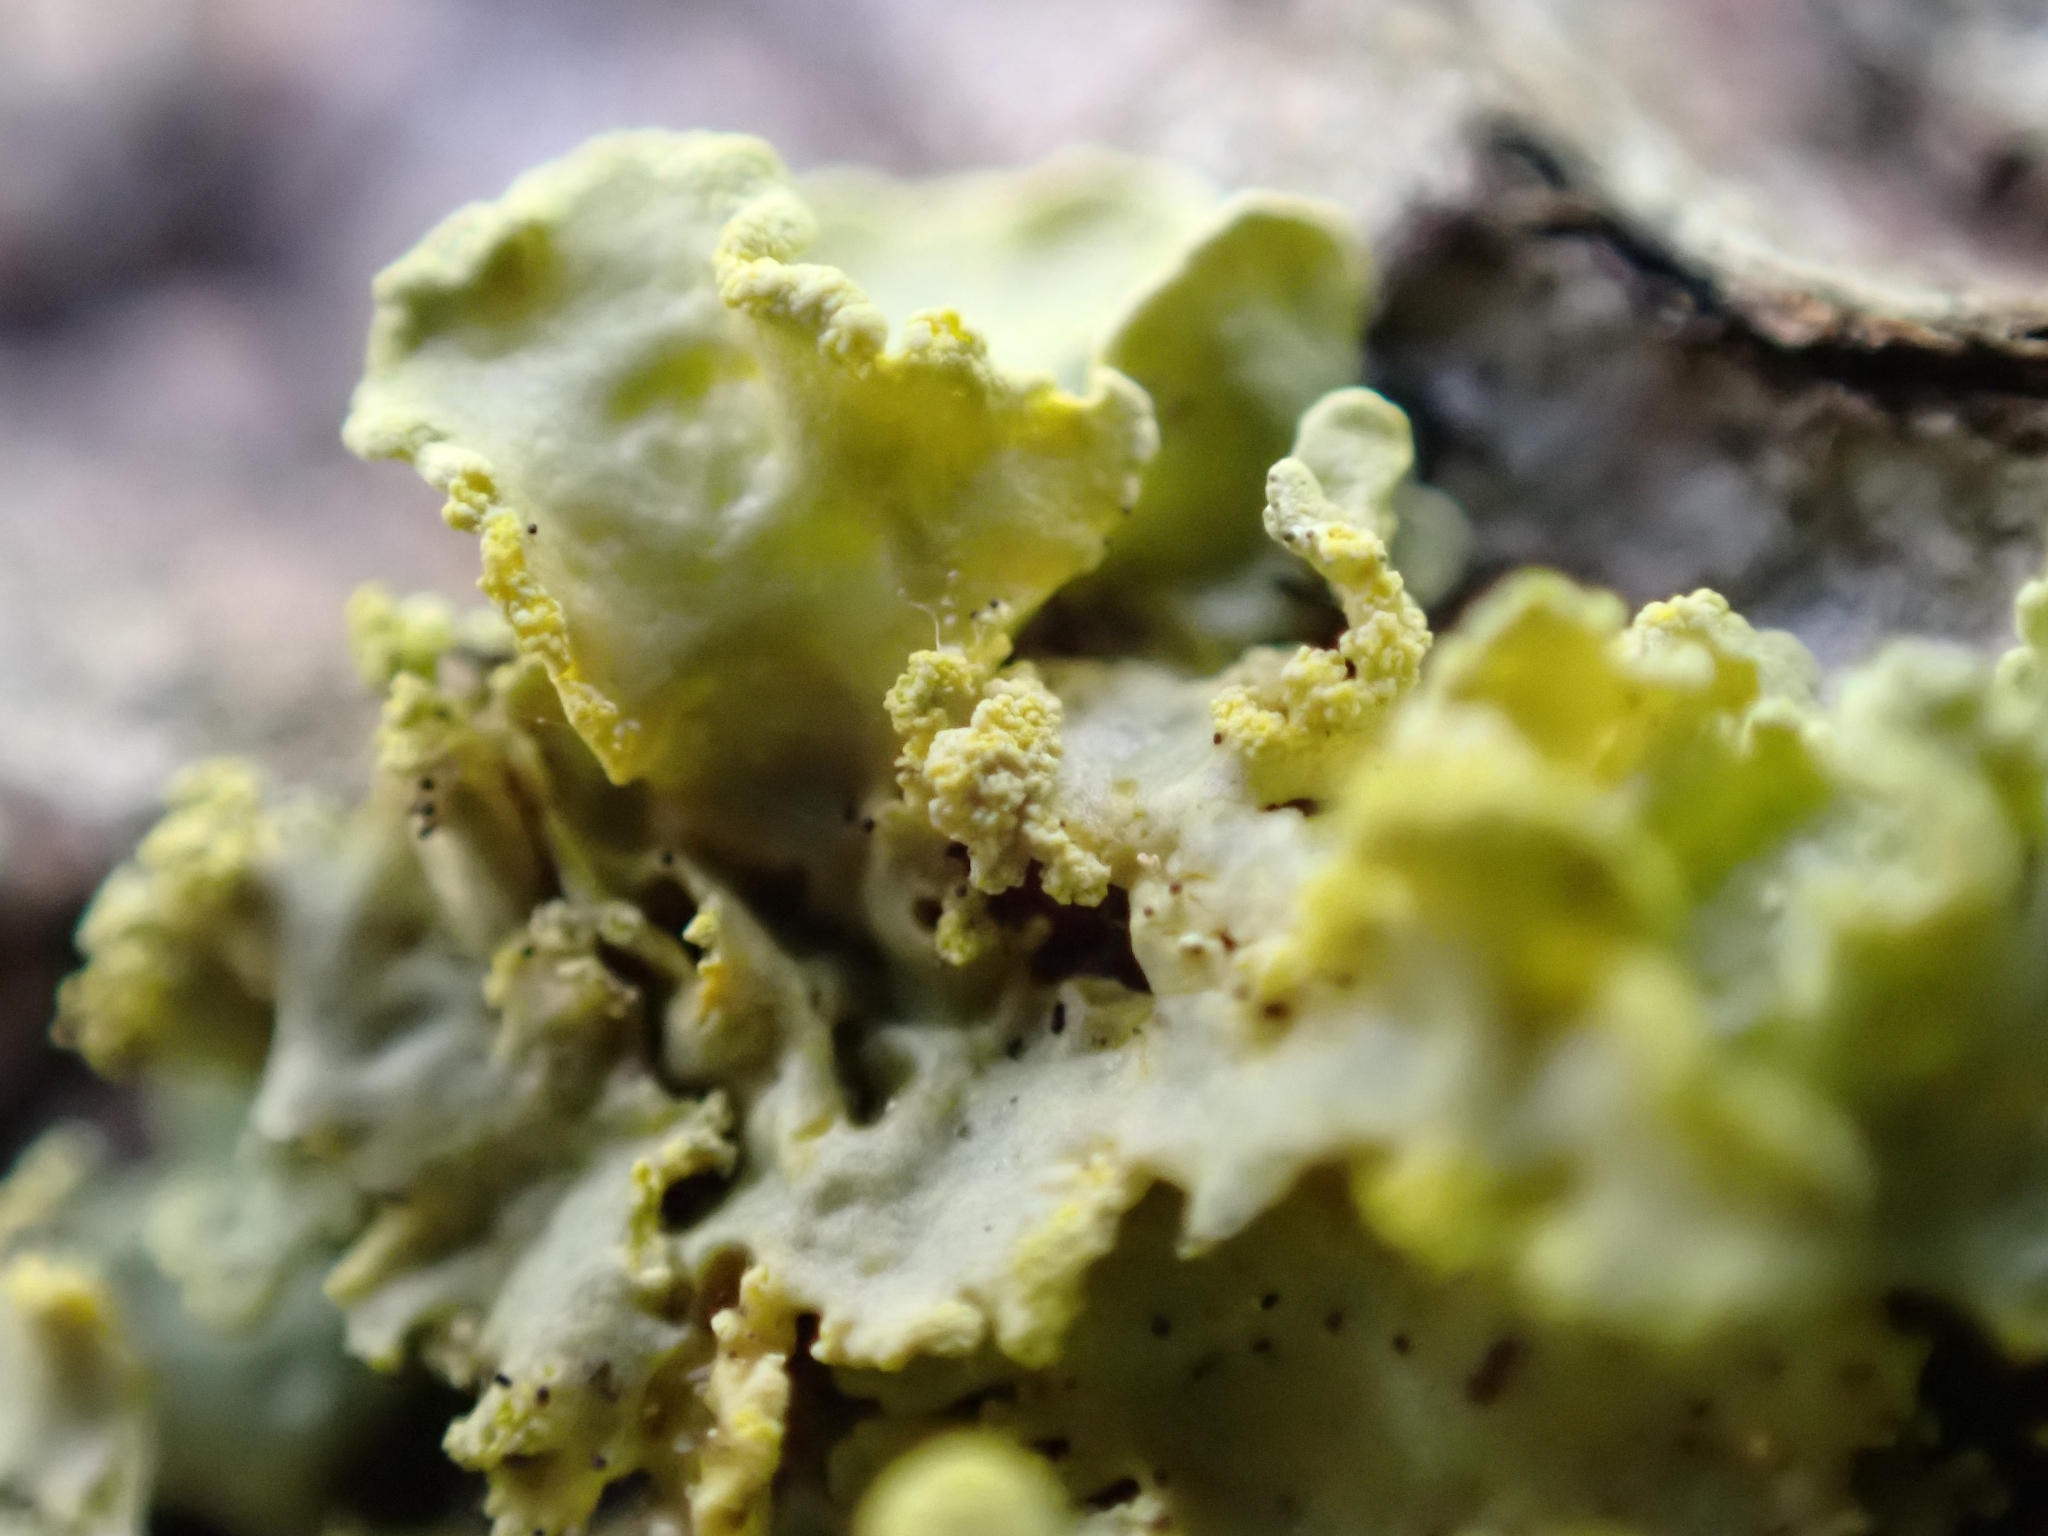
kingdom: Fungi
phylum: Ascomycota
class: Lecanoromycetes
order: Lecanorales
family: Parmeliaceae
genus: Vulpicida
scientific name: Vulpicida pinastri
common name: Powdered sunshine lichen
